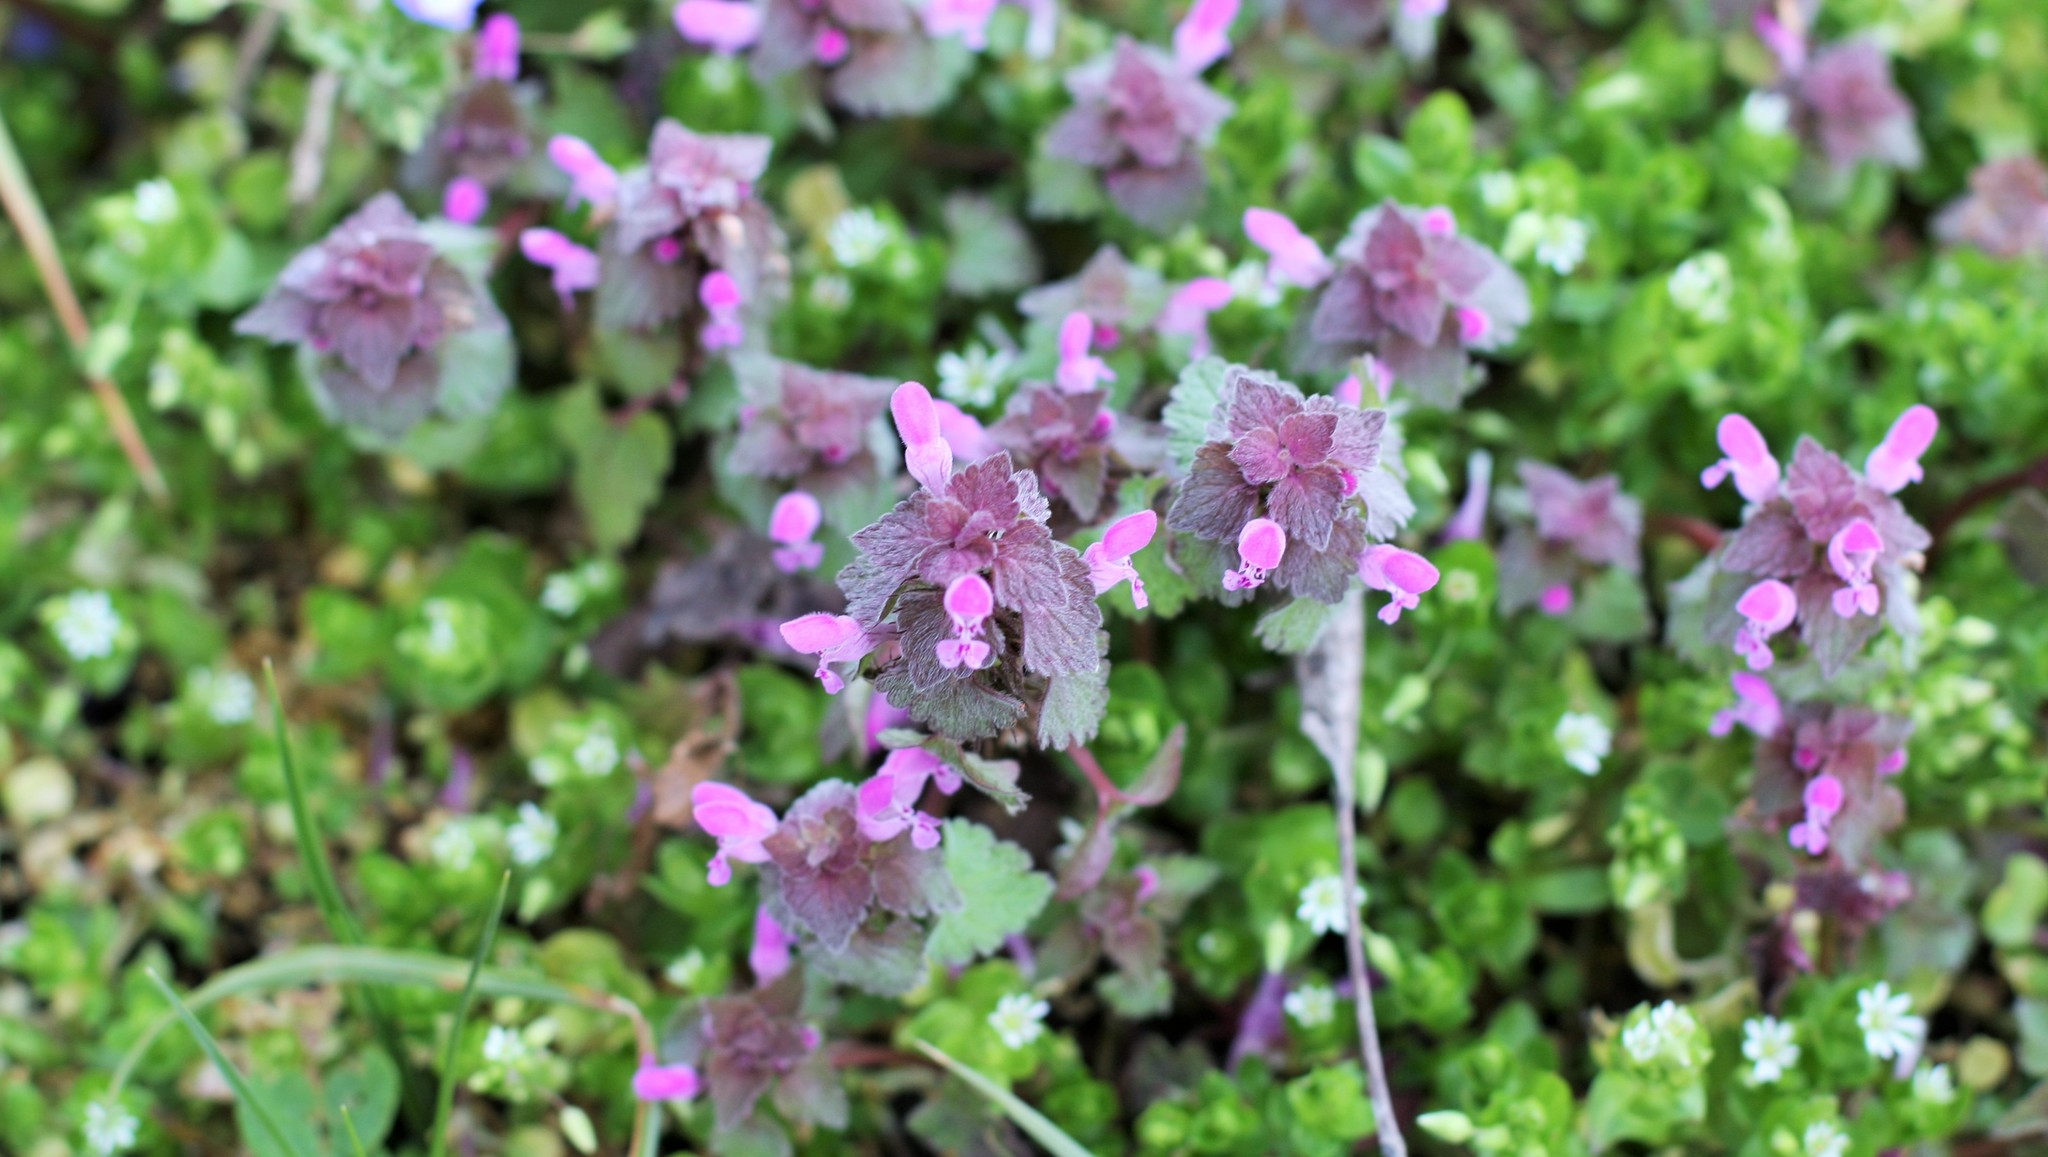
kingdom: Plantae
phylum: Tracheophyta
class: Magnoliopsida
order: Lamiales
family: Lamiaceae
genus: Lamium
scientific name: Lamium purpureum
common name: Red dead-nettle
